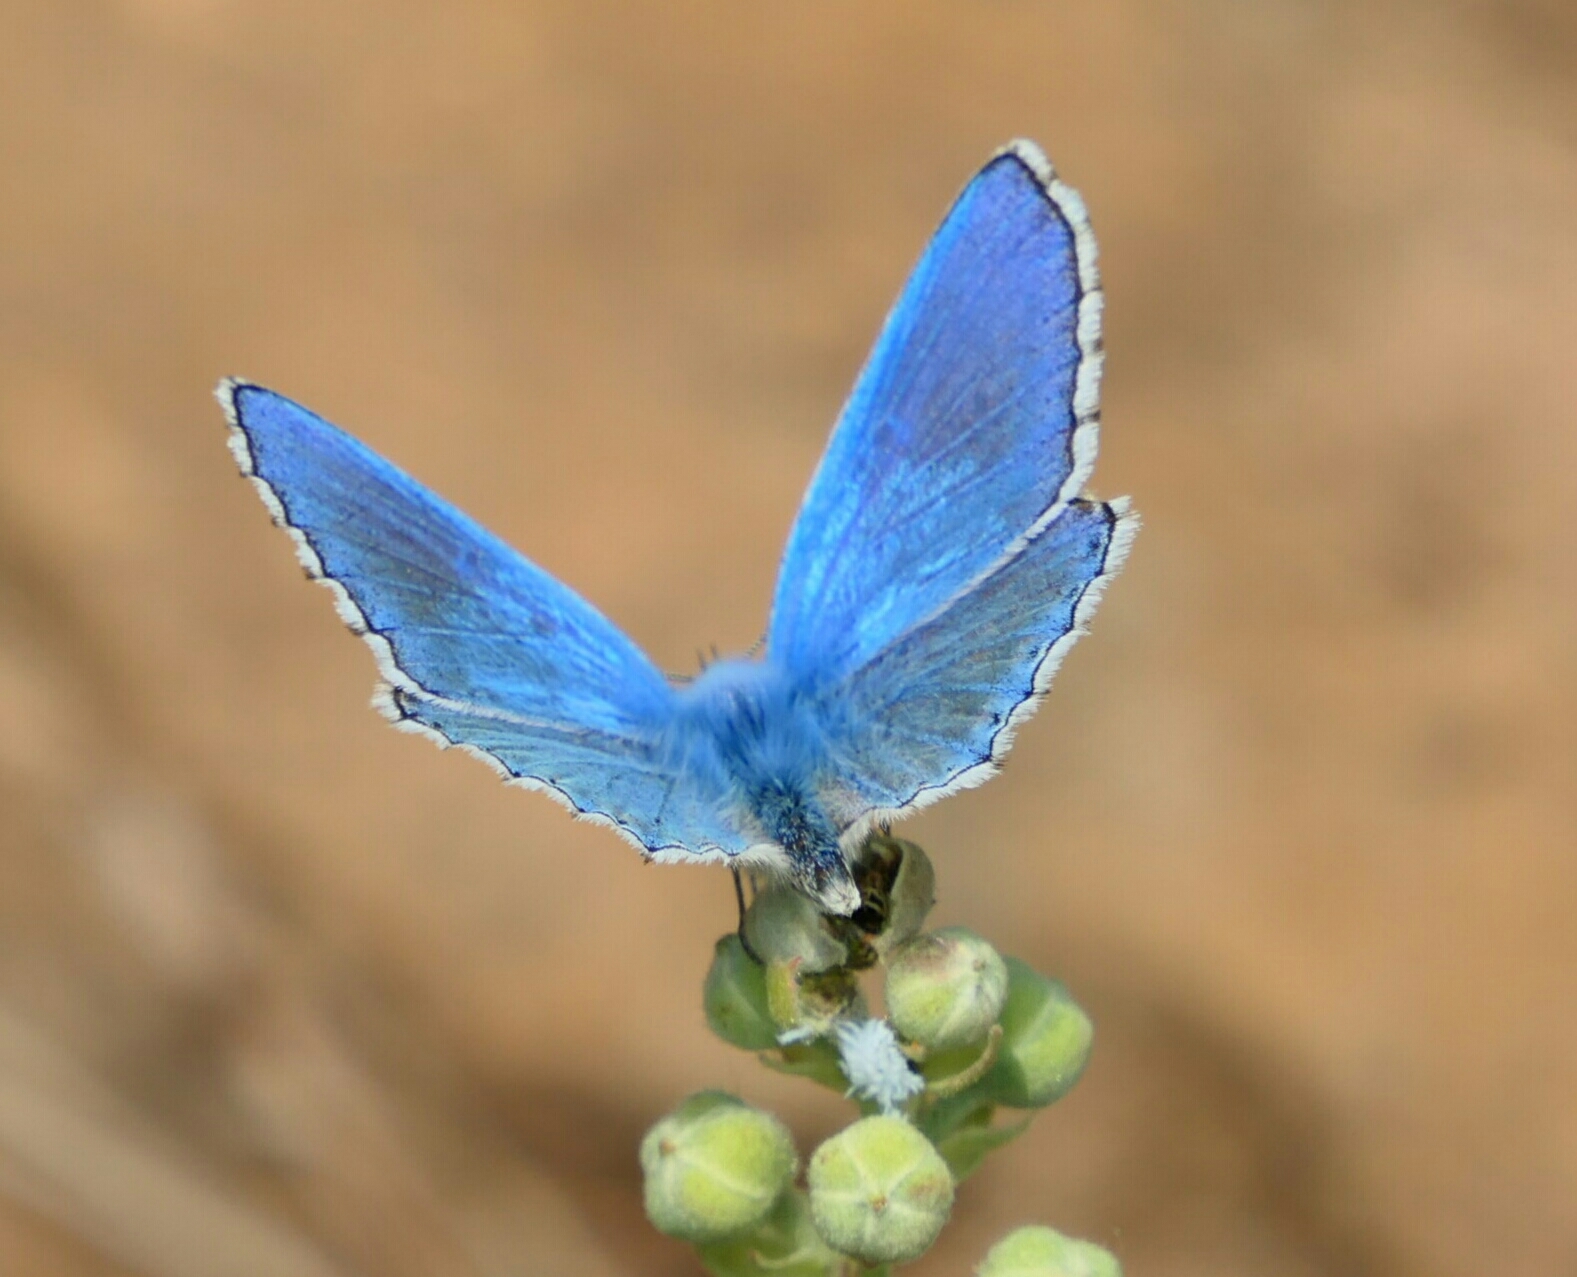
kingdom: Animalia
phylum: Arthropoda
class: Insecta
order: Lepidoptera
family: Lycaenidae
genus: Lysandra
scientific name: Lysandra bellargus
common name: Adonis blue
